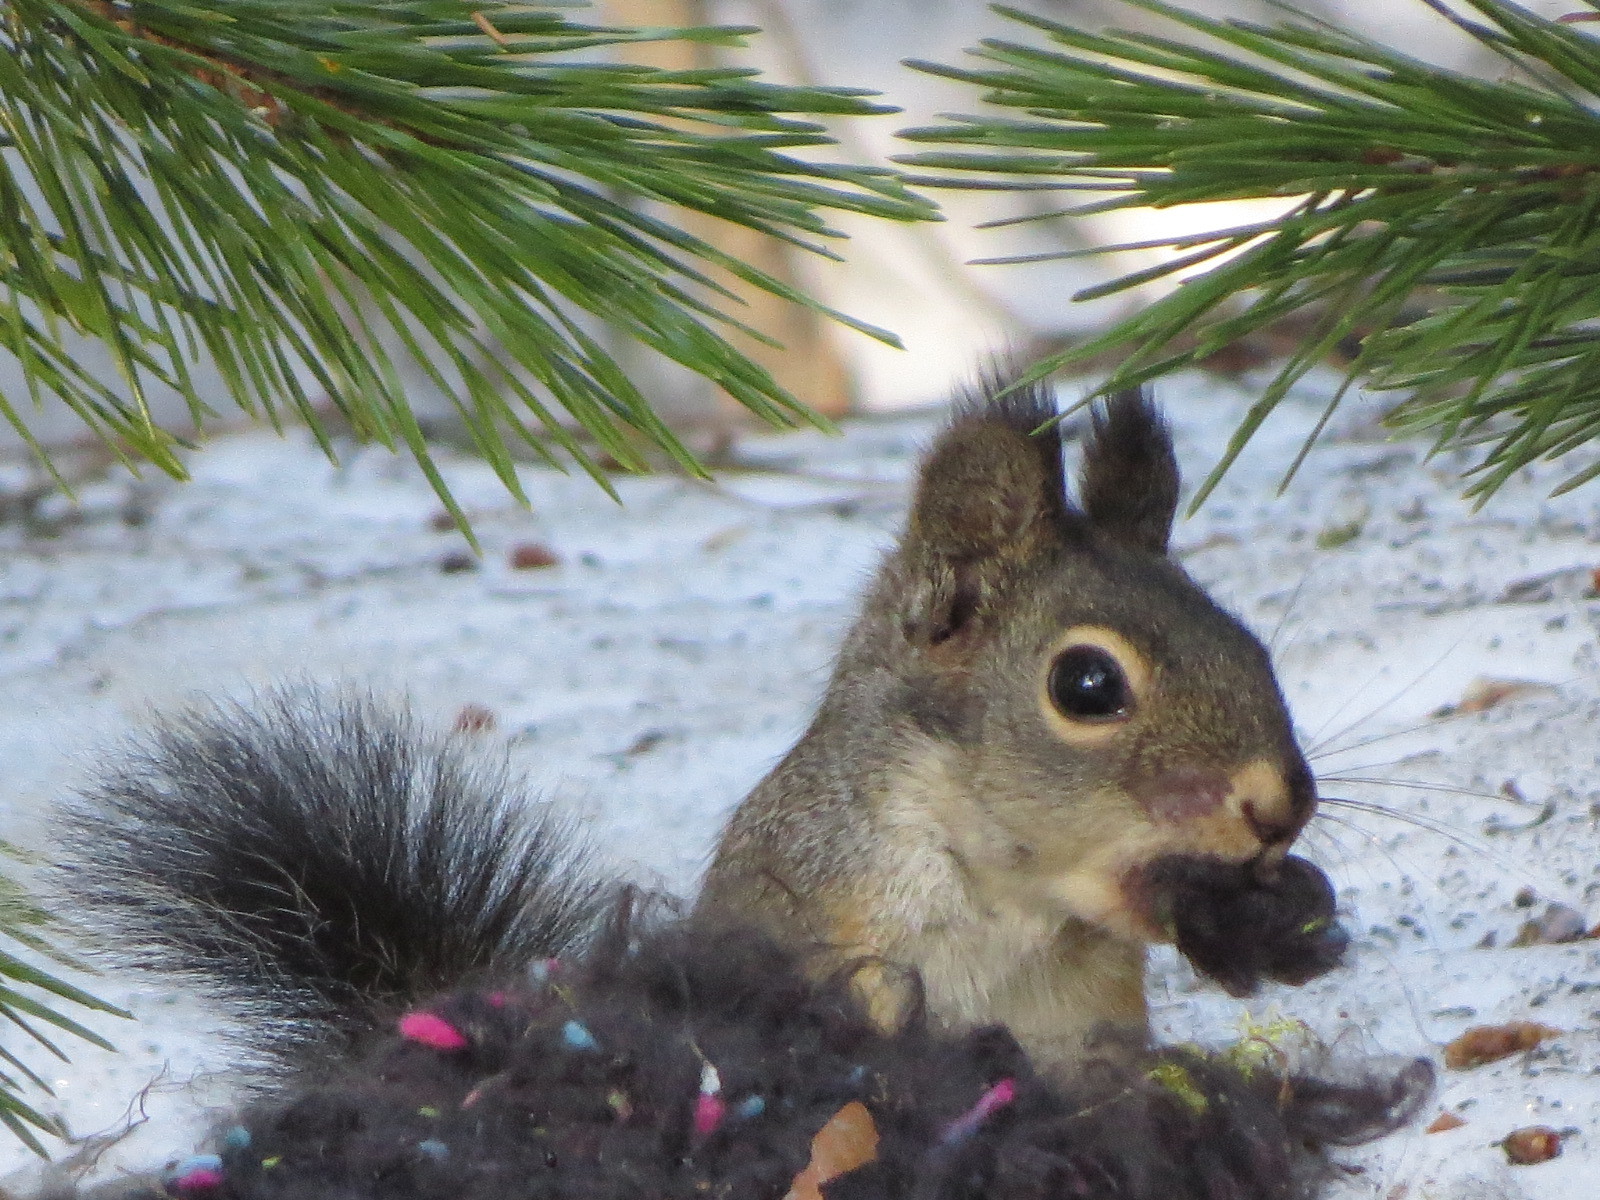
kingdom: Animalia
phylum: Chordata
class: Mammalia
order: Rodentia
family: Sciuridae
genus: Tamiasciurus
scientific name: Tamiasciurus douglasii
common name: Douglas's squirrel
